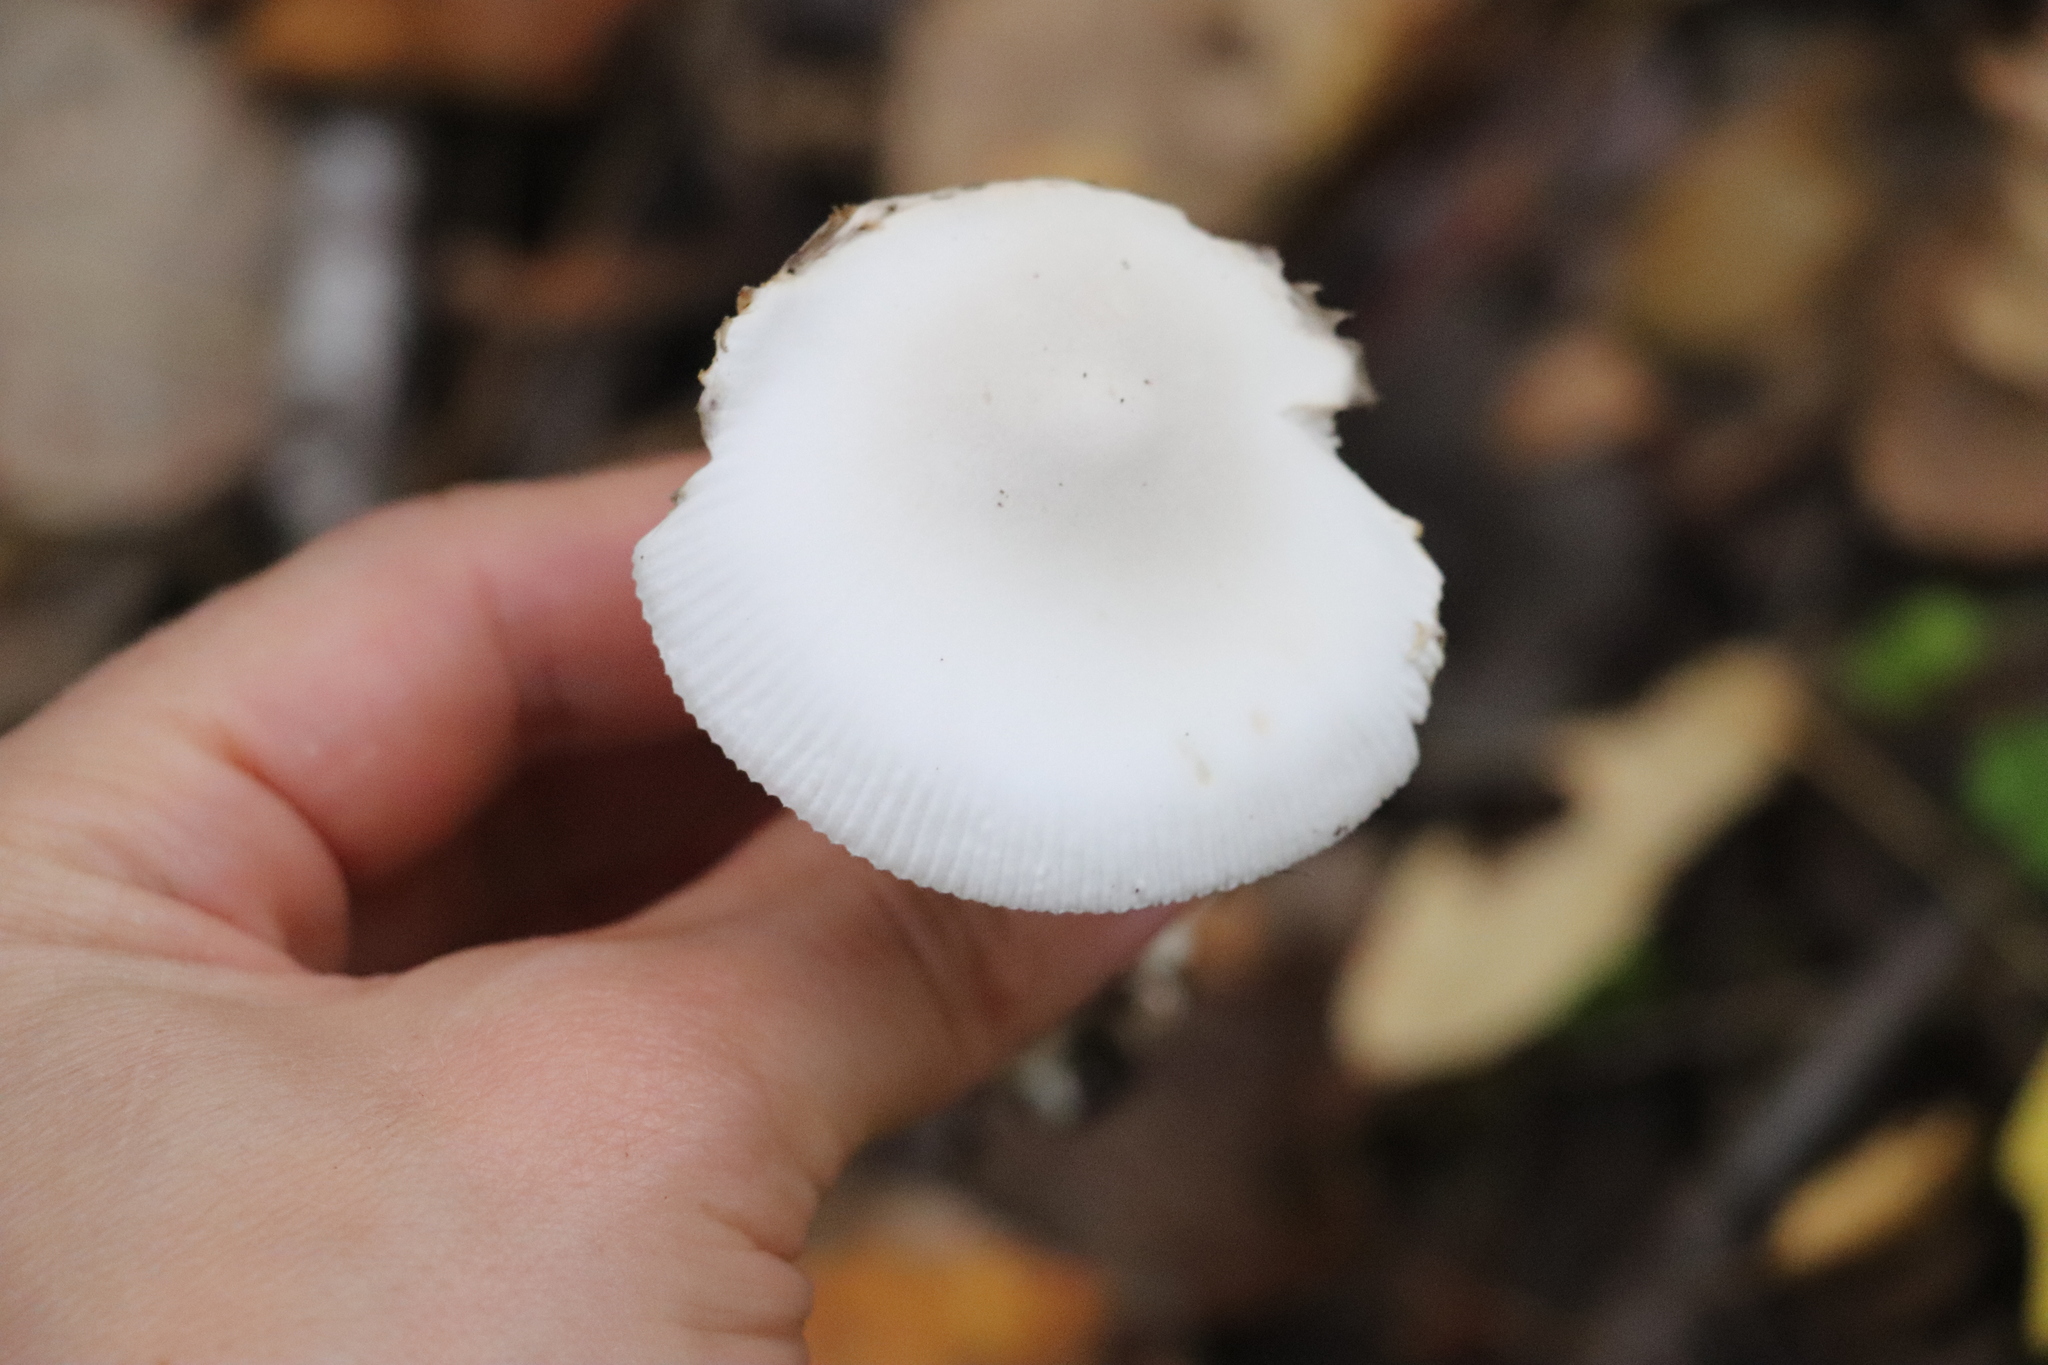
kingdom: Fungi
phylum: Basidiomycota
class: Agaricomycetes
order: Agaricales
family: Amanitaceae
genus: Amanita
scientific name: Amanita vaginata
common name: Grisette
